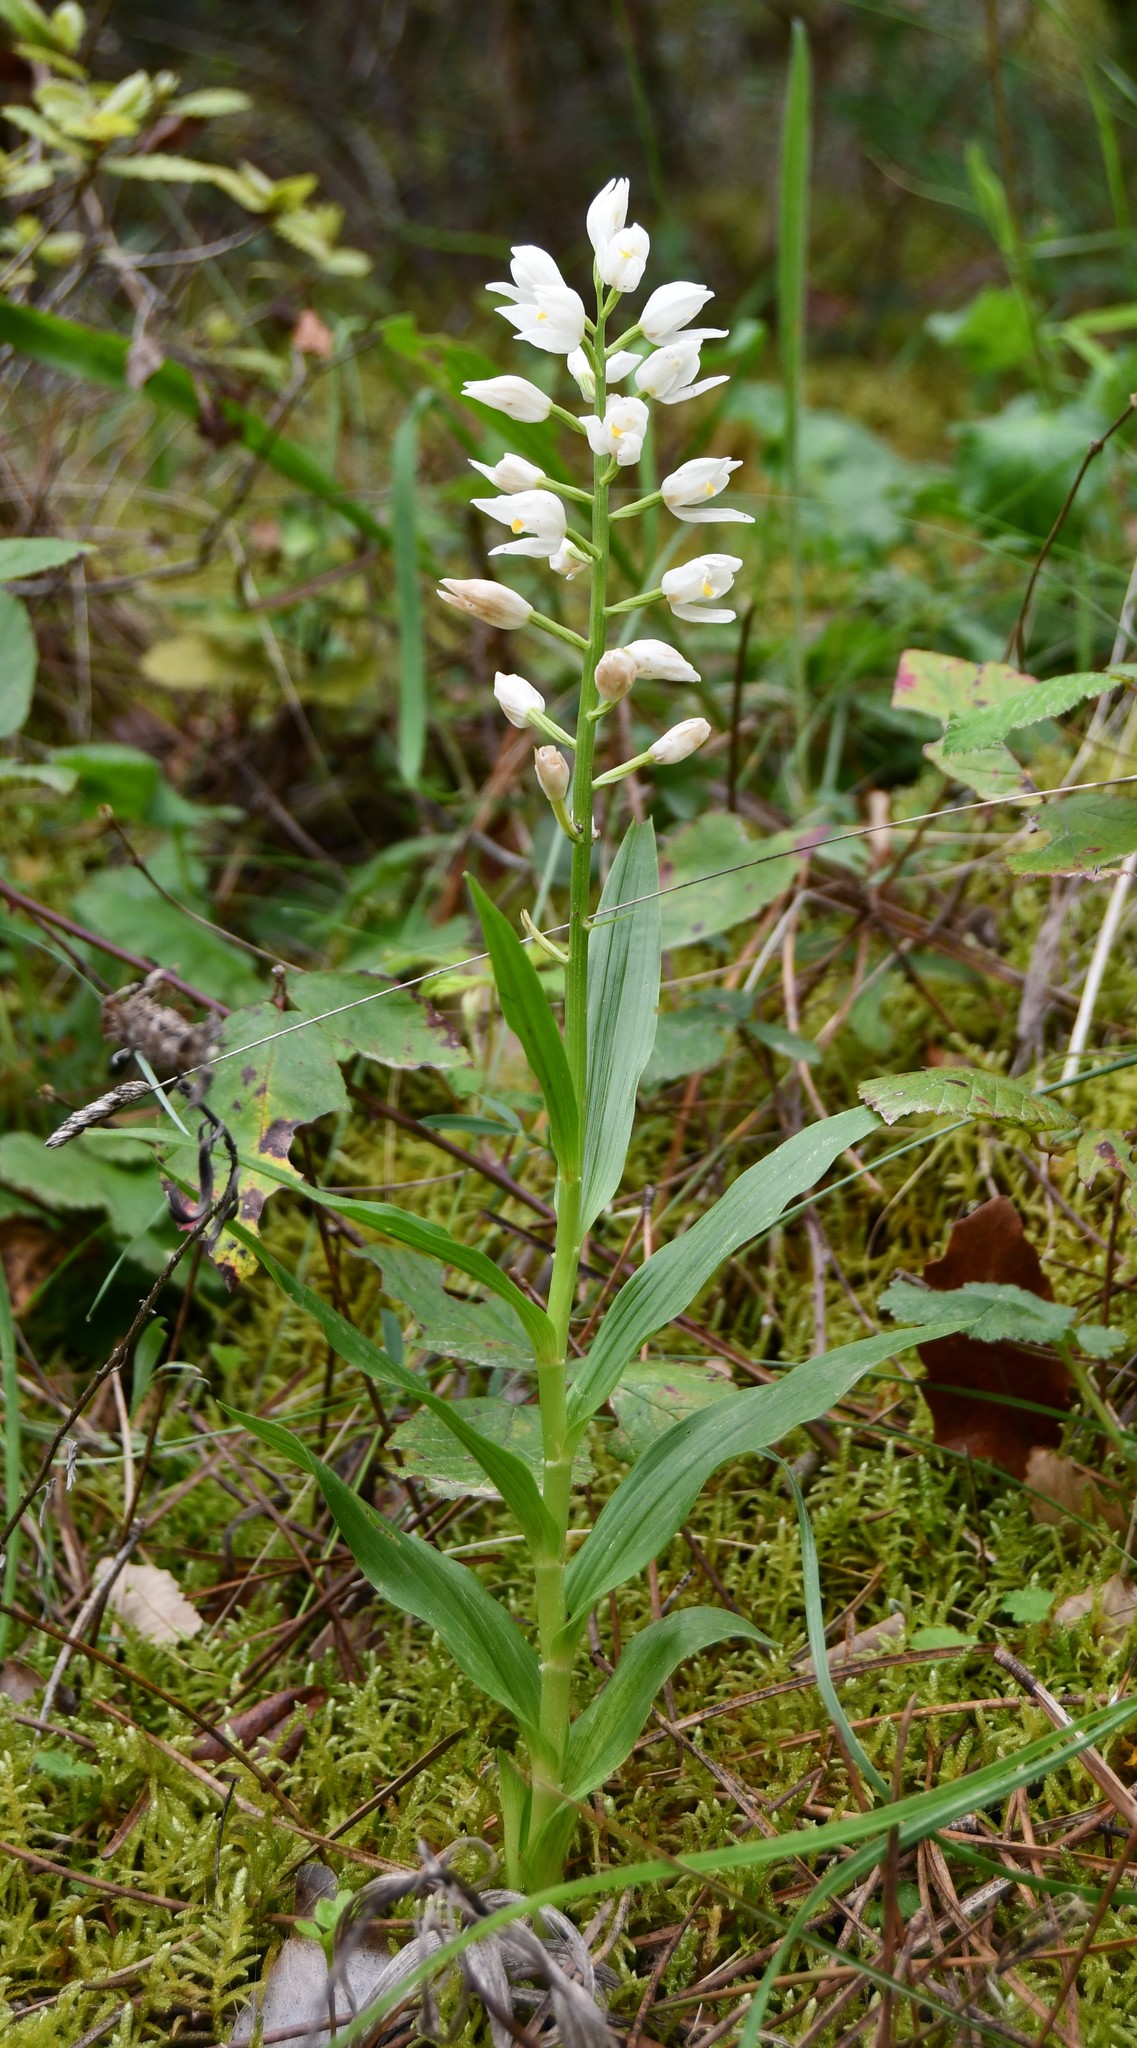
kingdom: Plantae
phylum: Tracheophyta
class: Liliopsida
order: Asparagales
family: Orchidaceae
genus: Cephalanthera
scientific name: Cephalanthera longifolia
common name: Narrow-leaved helleborine
